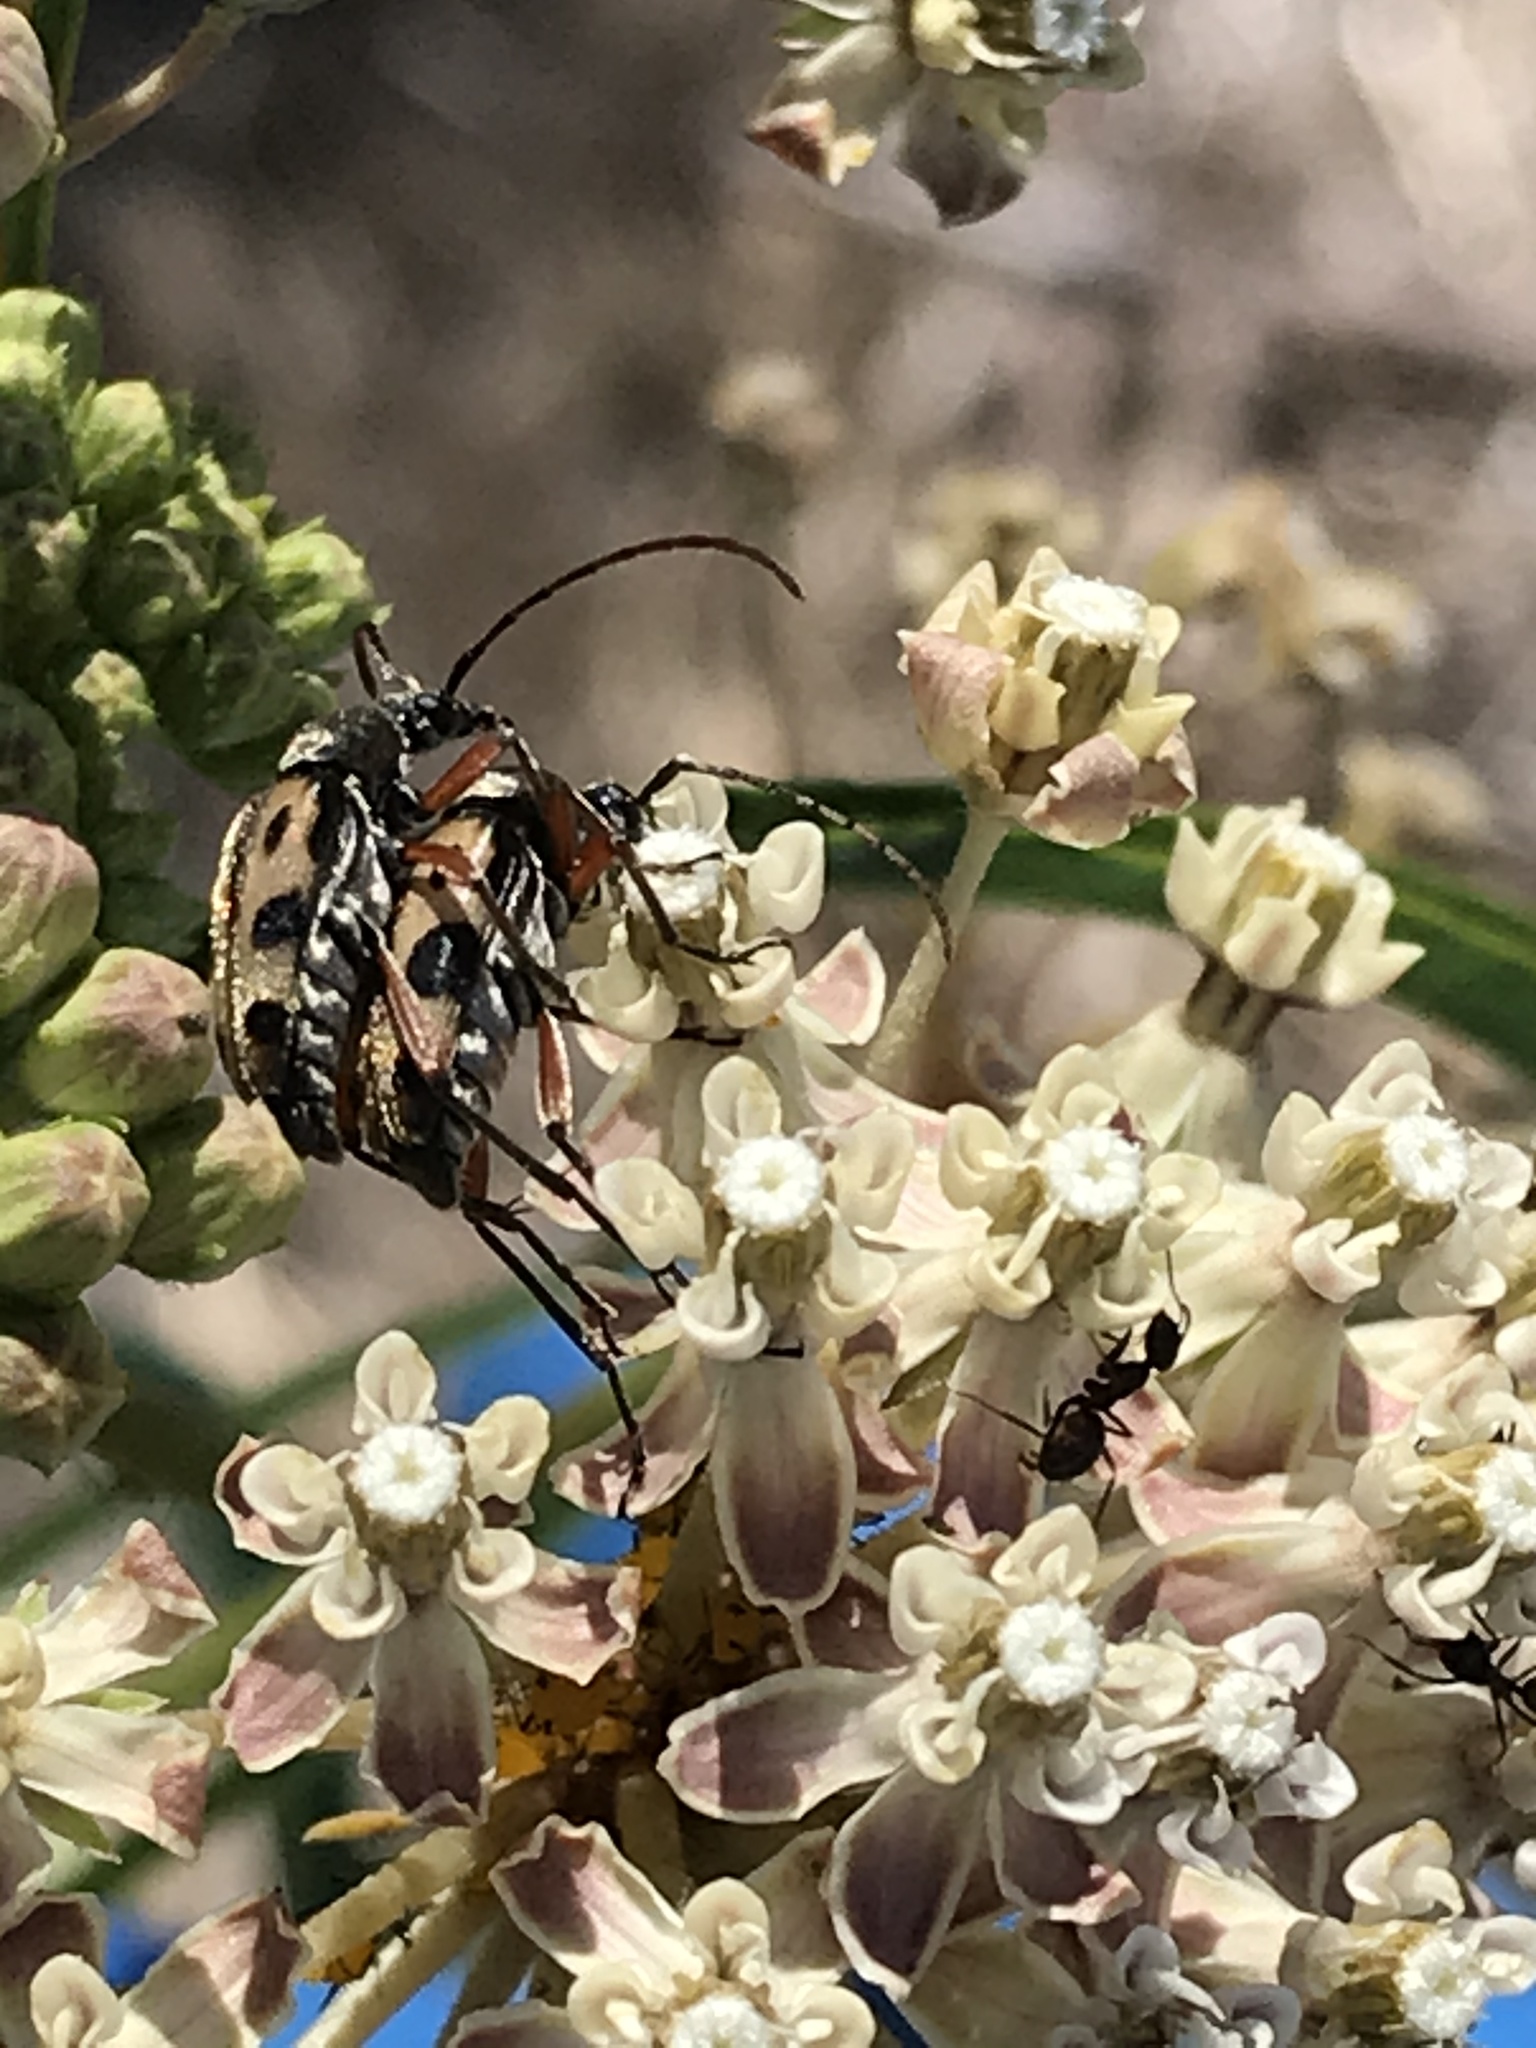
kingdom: Animalia
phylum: Arthropoda
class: Insecta
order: Coleoptera
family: Cerambycidae
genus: Judolia
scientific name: Judolia sexspilota
